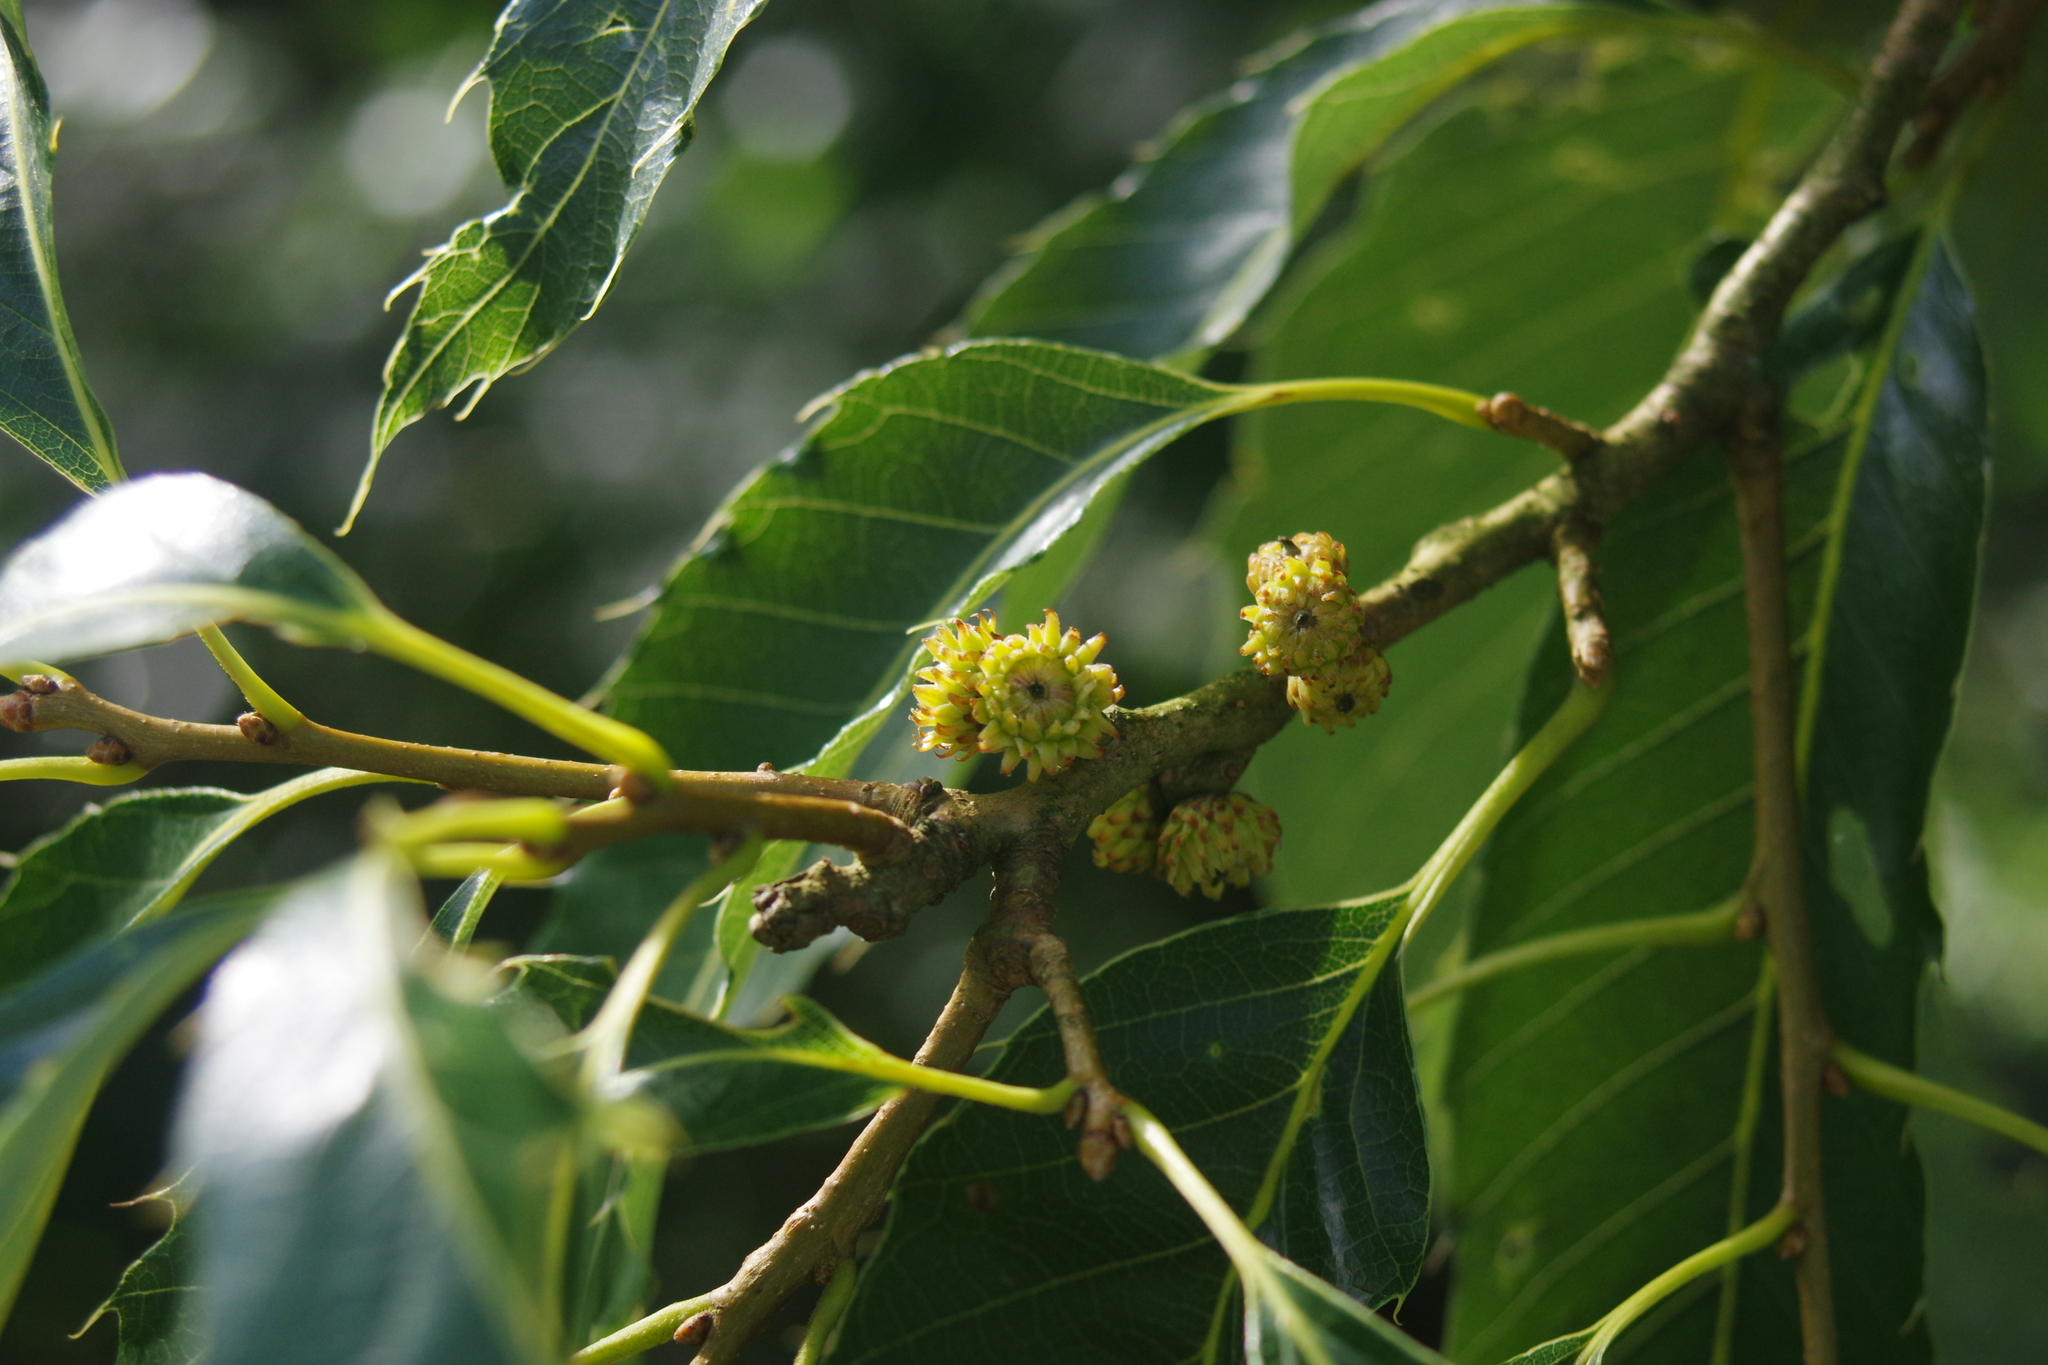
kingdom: Plantae
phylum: Tracheophyta
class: Magnoliopsida
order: Fagales
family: Fagaceae
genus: Quercus
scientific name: Quercus variabilis
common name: Chinese cork oak
